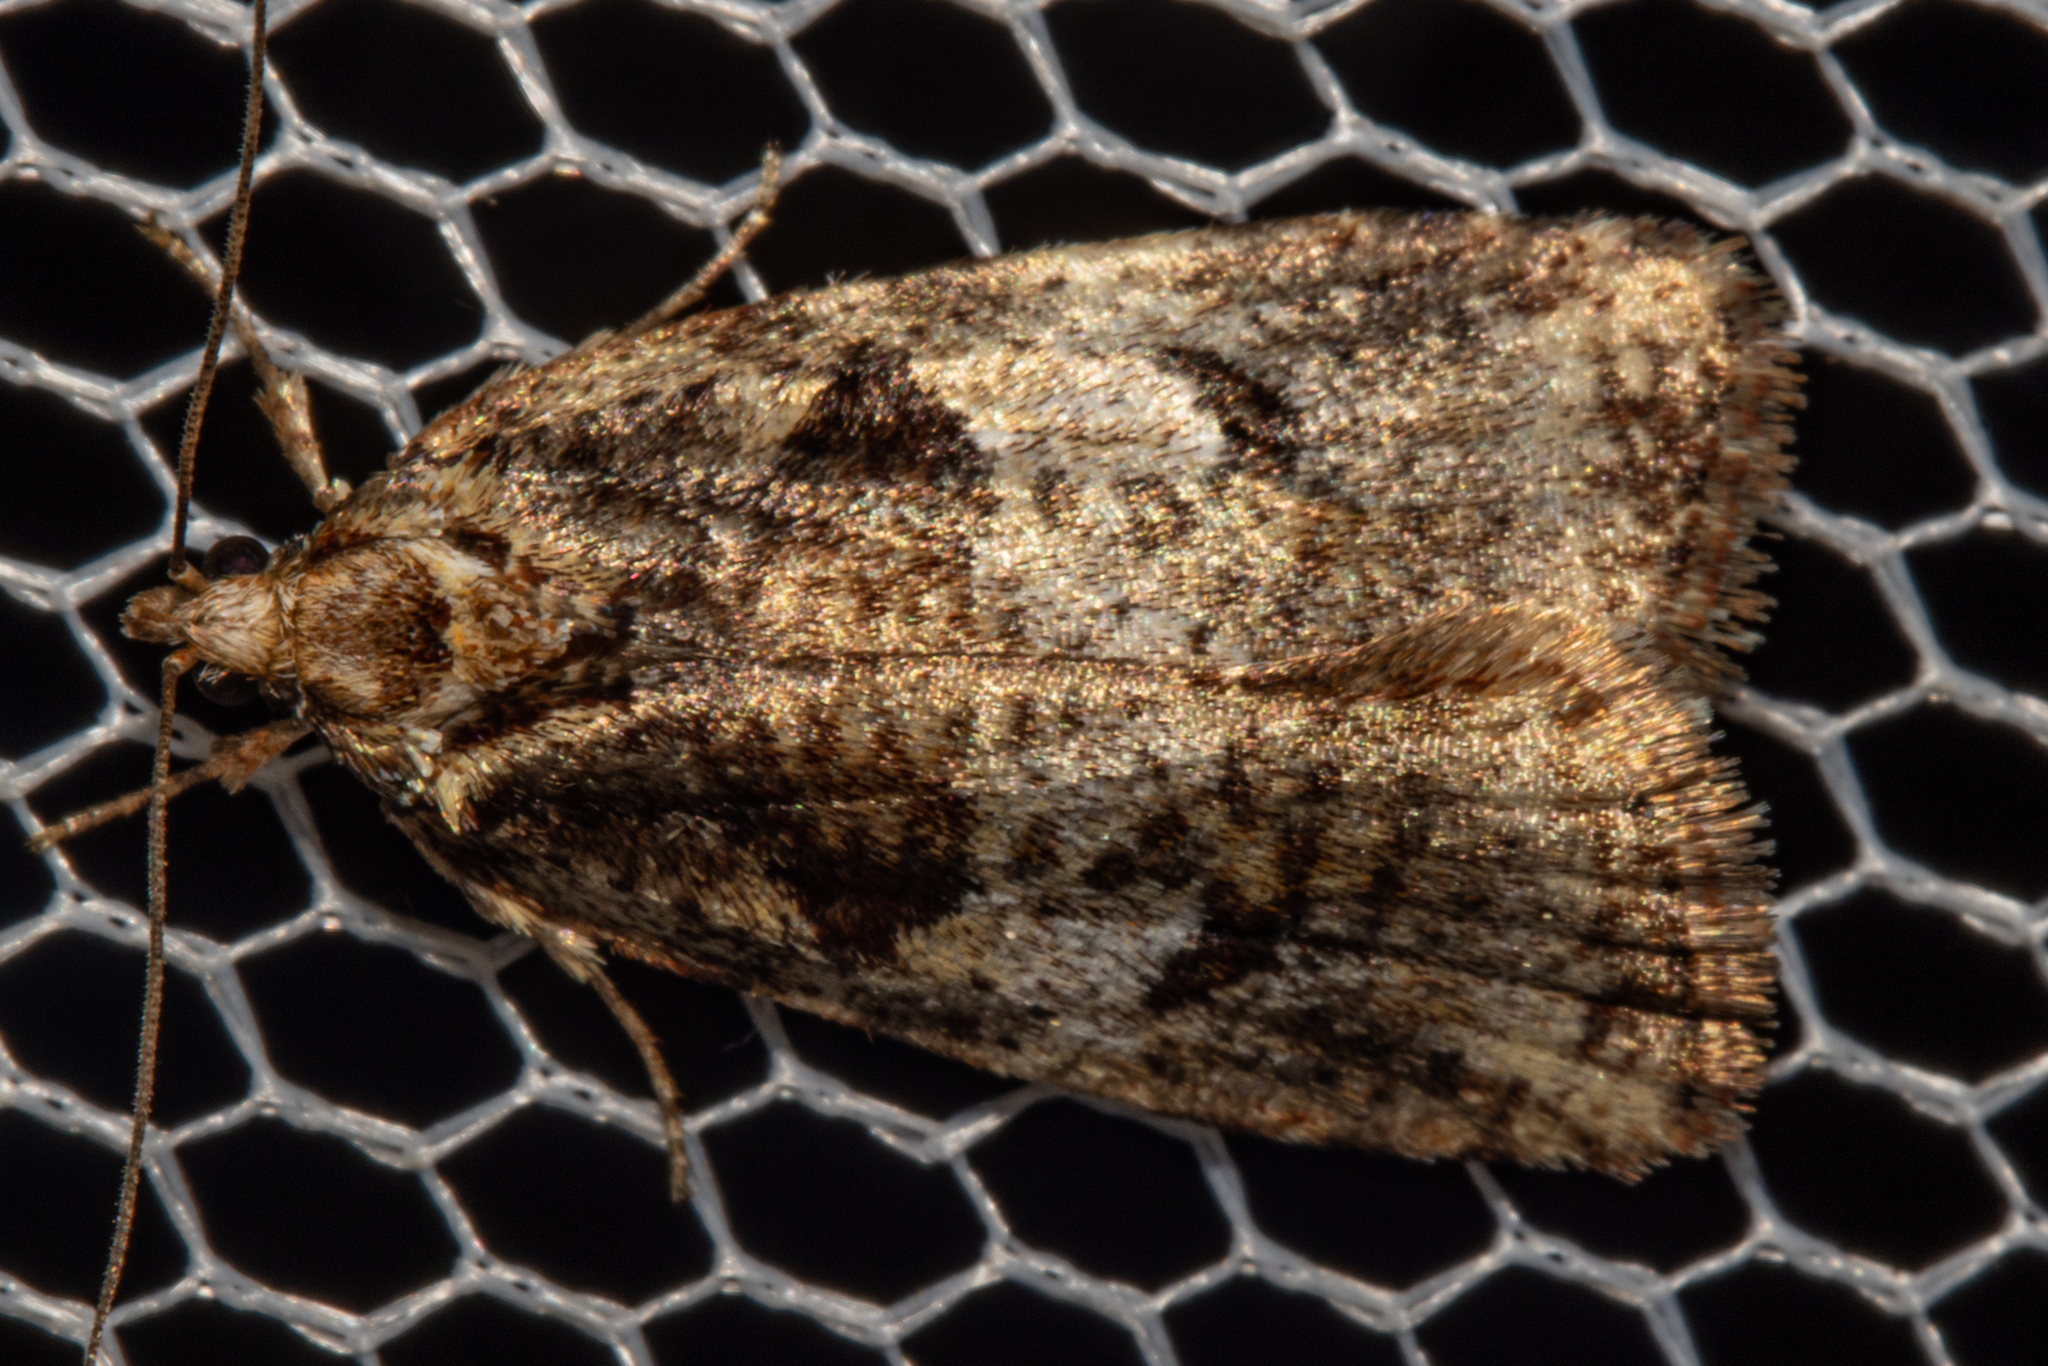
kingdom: Animalia
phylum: Arthropoda
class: Insecta
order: Lepidoptera
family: Oecophoridae
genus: Proteodes
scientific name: Proteodes profunda
